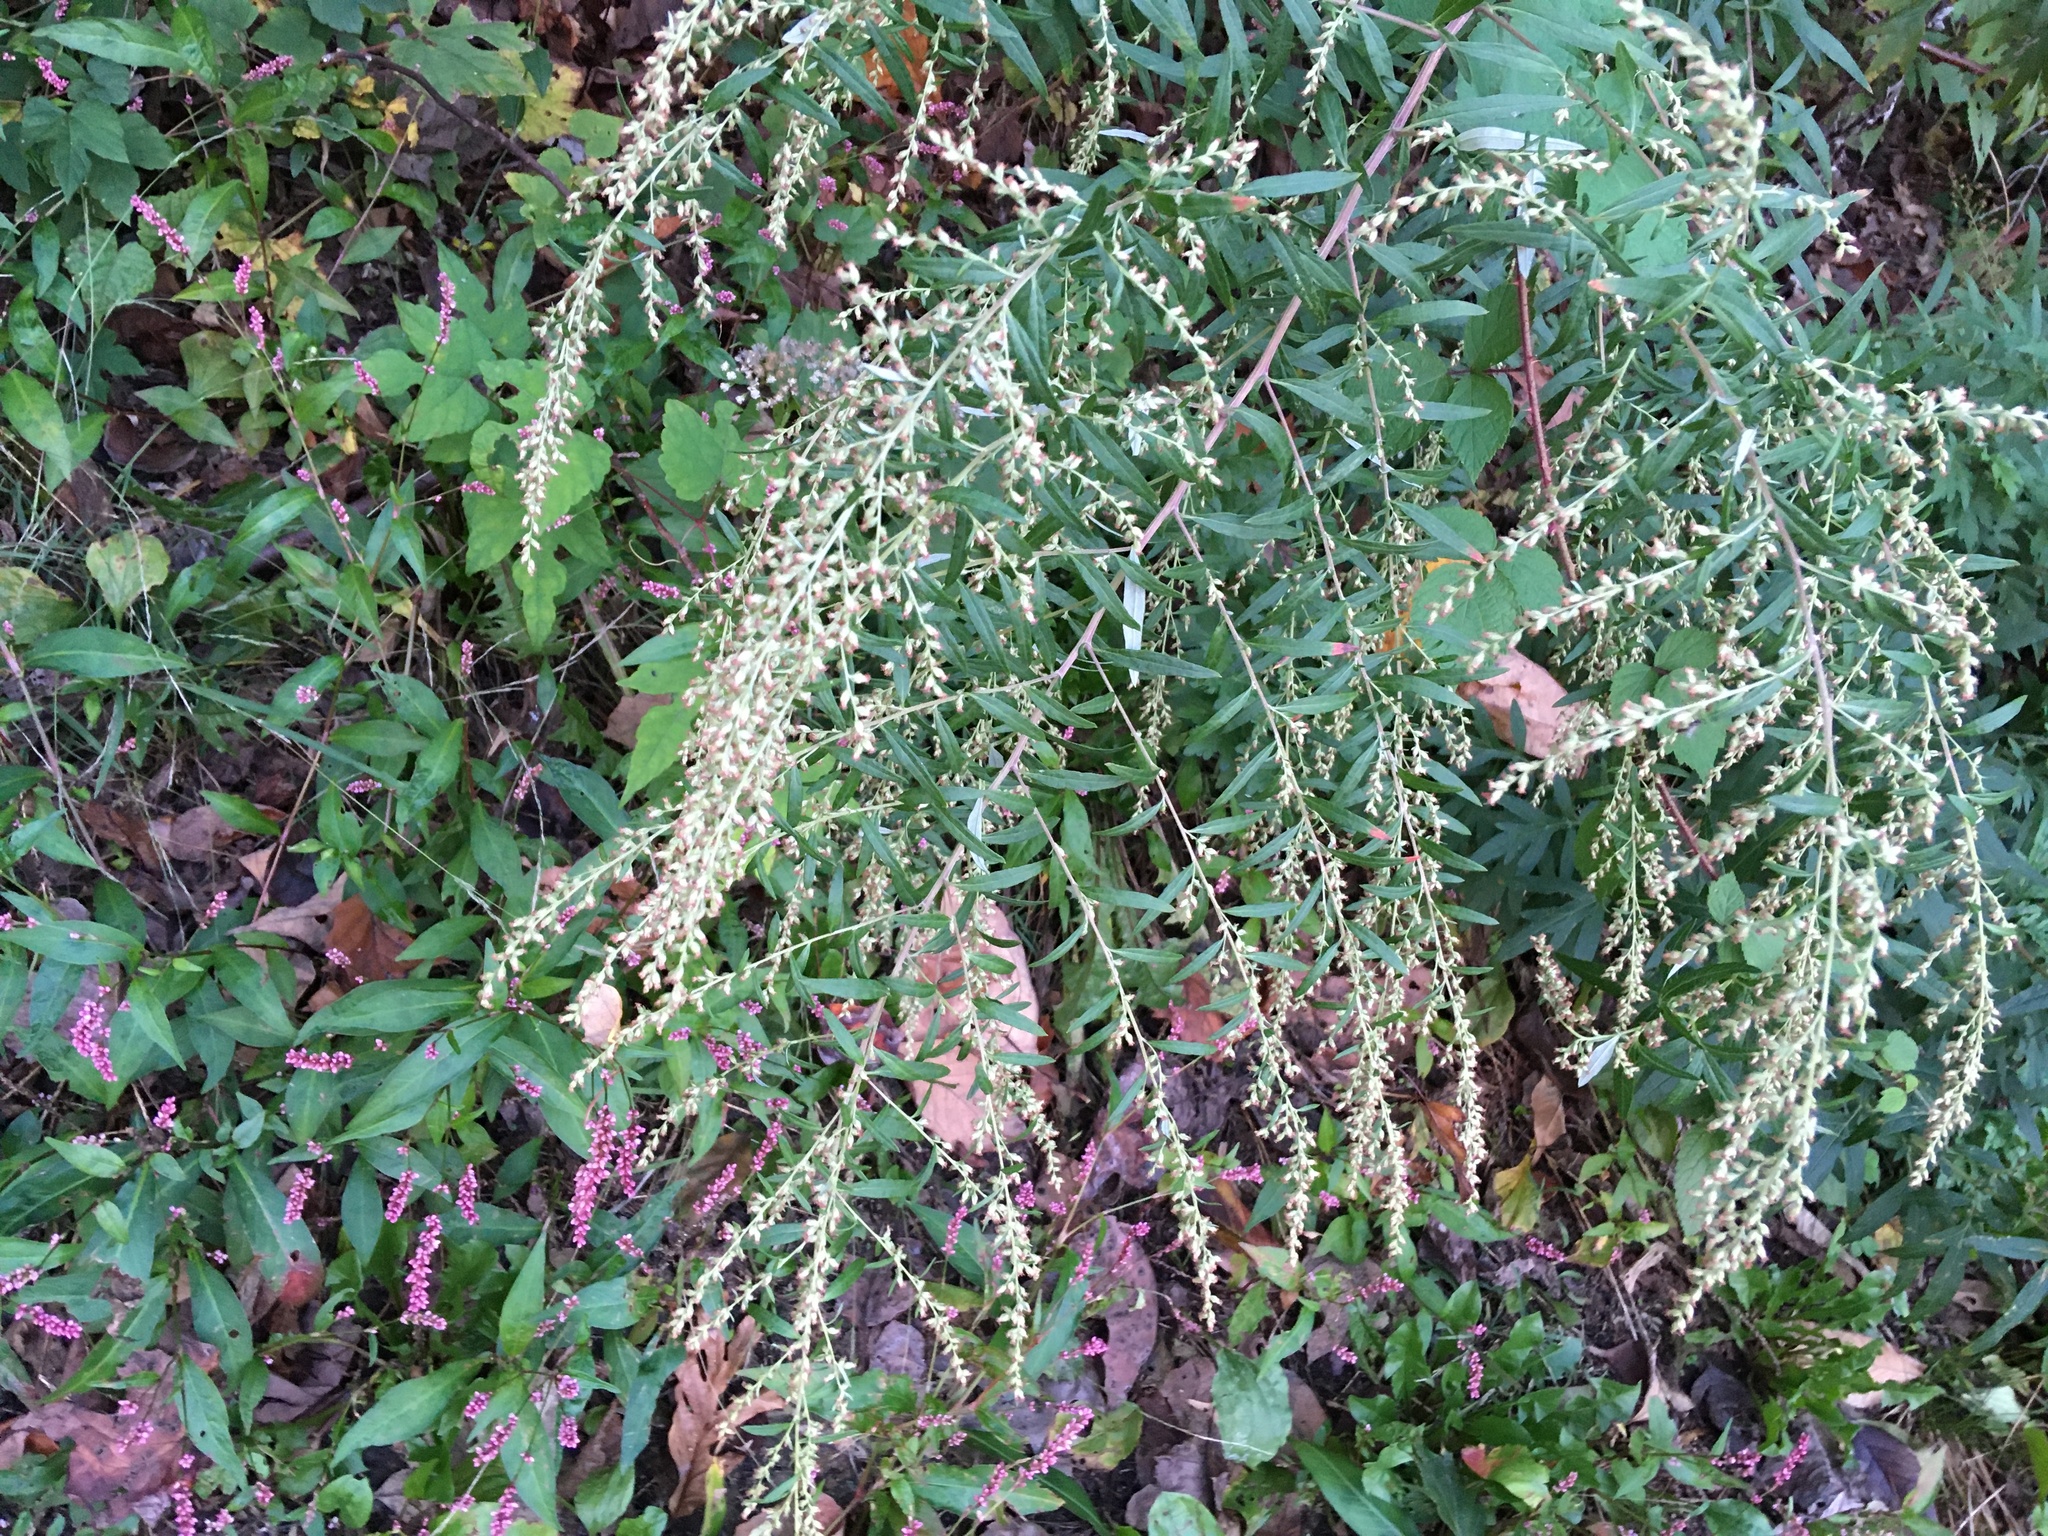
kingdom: Plantae
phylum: Tracheophyta
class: Magnoliopsida
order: Asterales
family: Asteraceae
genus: Artemisia
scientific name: Artemisia vulgaris
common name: Mugwort
